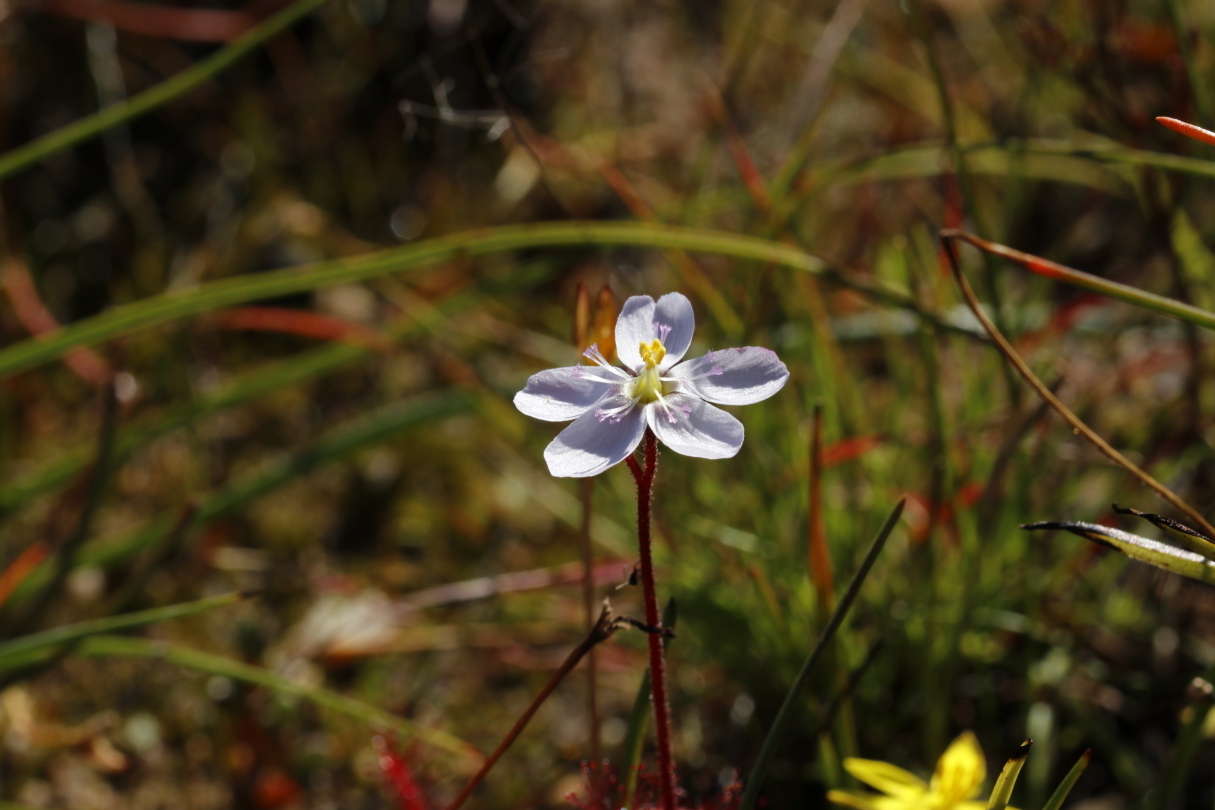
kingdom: Plantae
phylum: Tracheophyta
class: Magnoliopsida
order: Caryophyllales
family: Droseraceae
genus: Drosera
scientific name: Drosera alba
